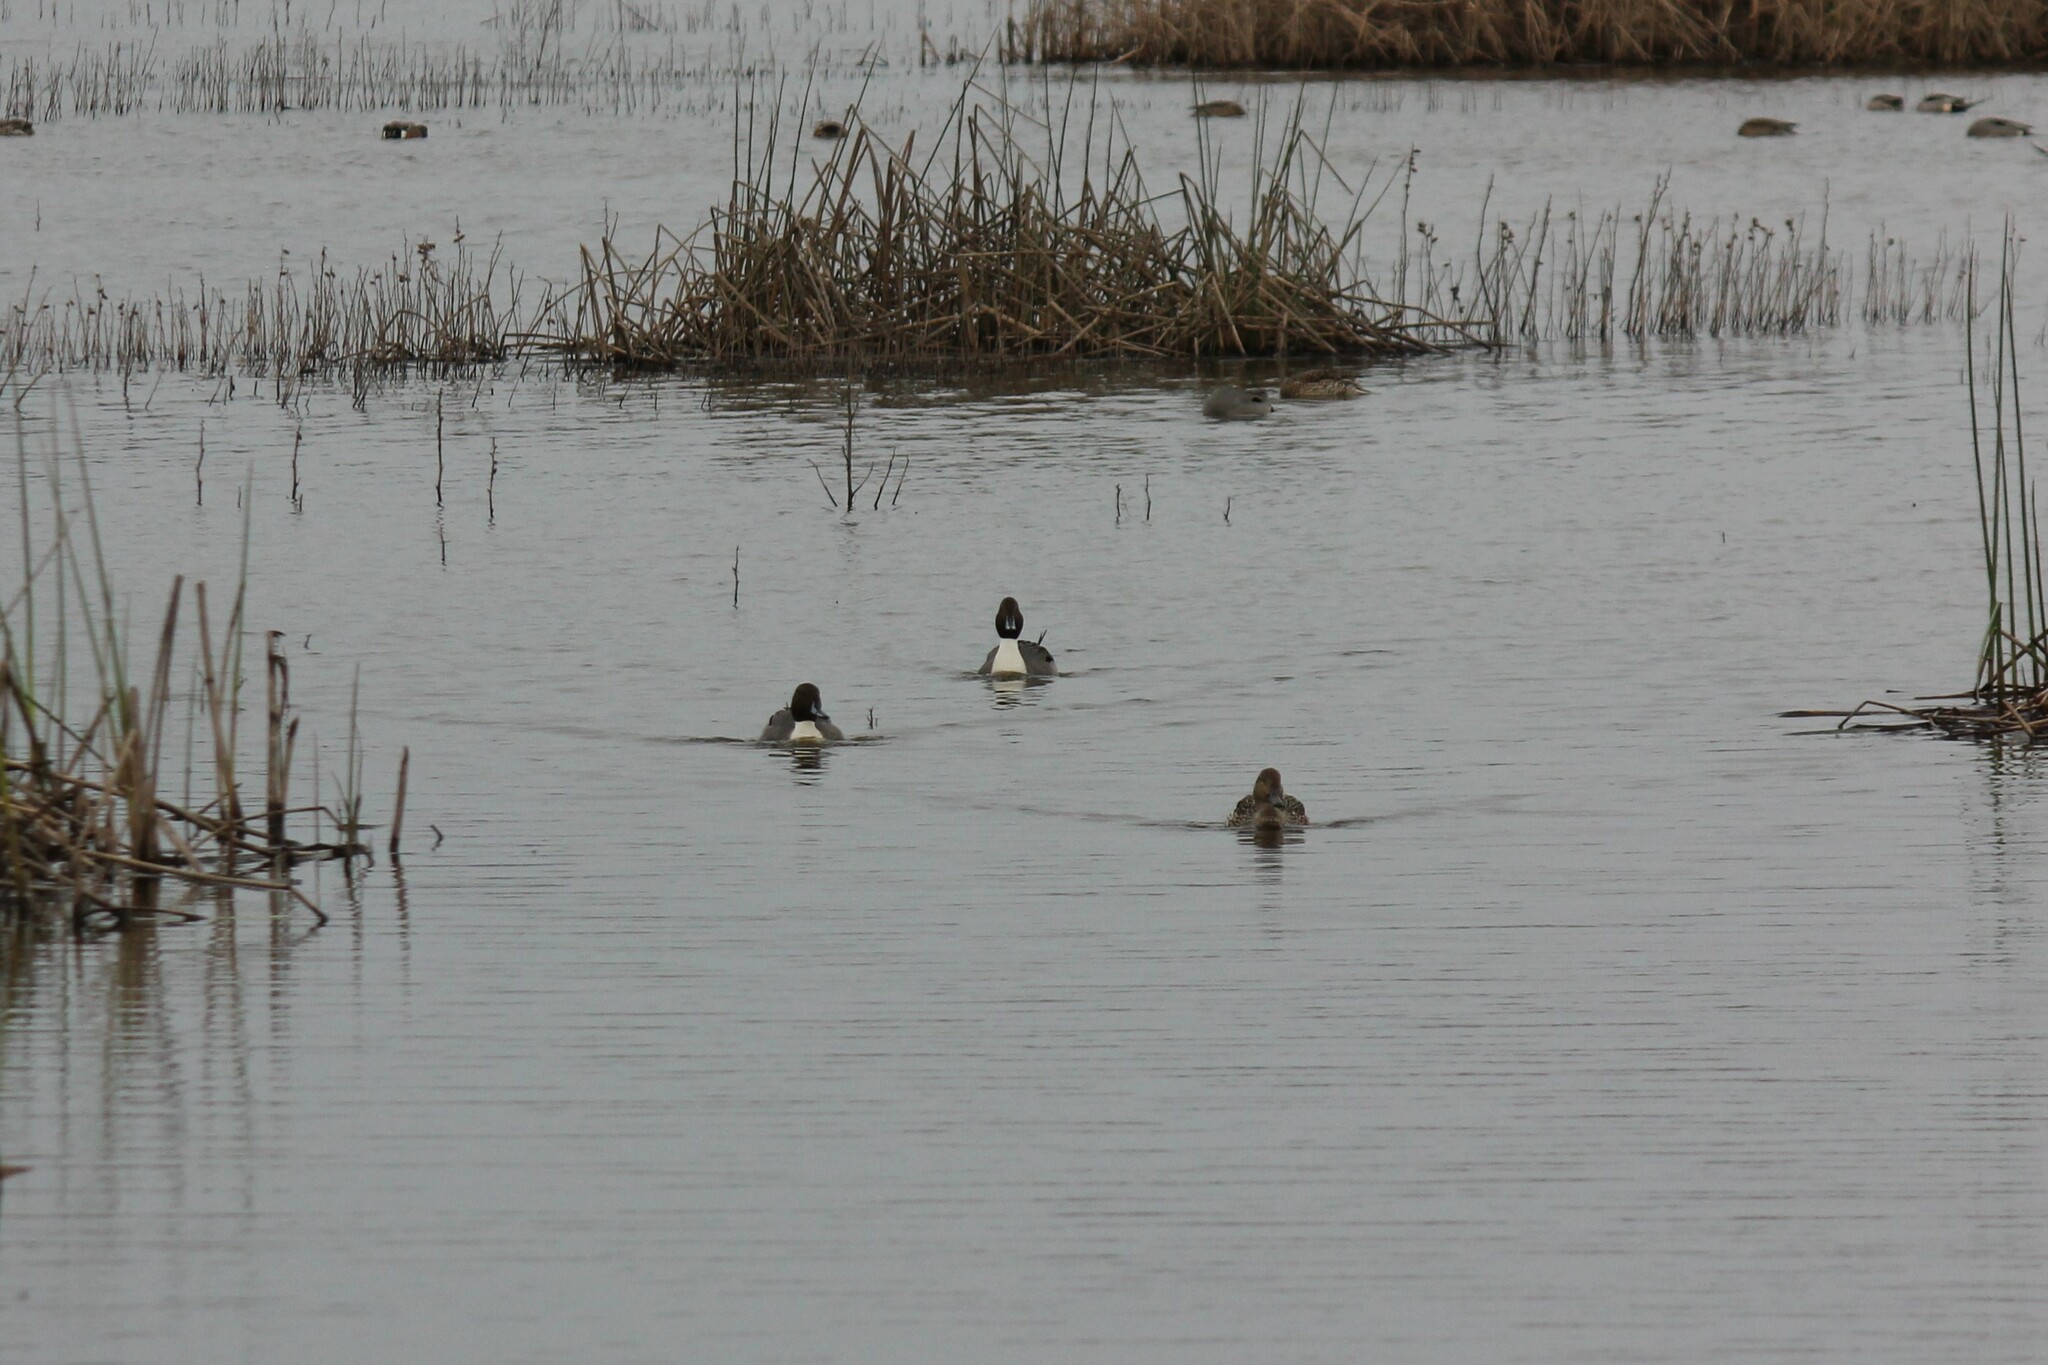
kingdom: Animalia
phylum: Chordata
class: Aves
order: Anseriformes
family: Anatidae
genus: Anas
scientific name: Anas acuta
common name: Northern pintail
